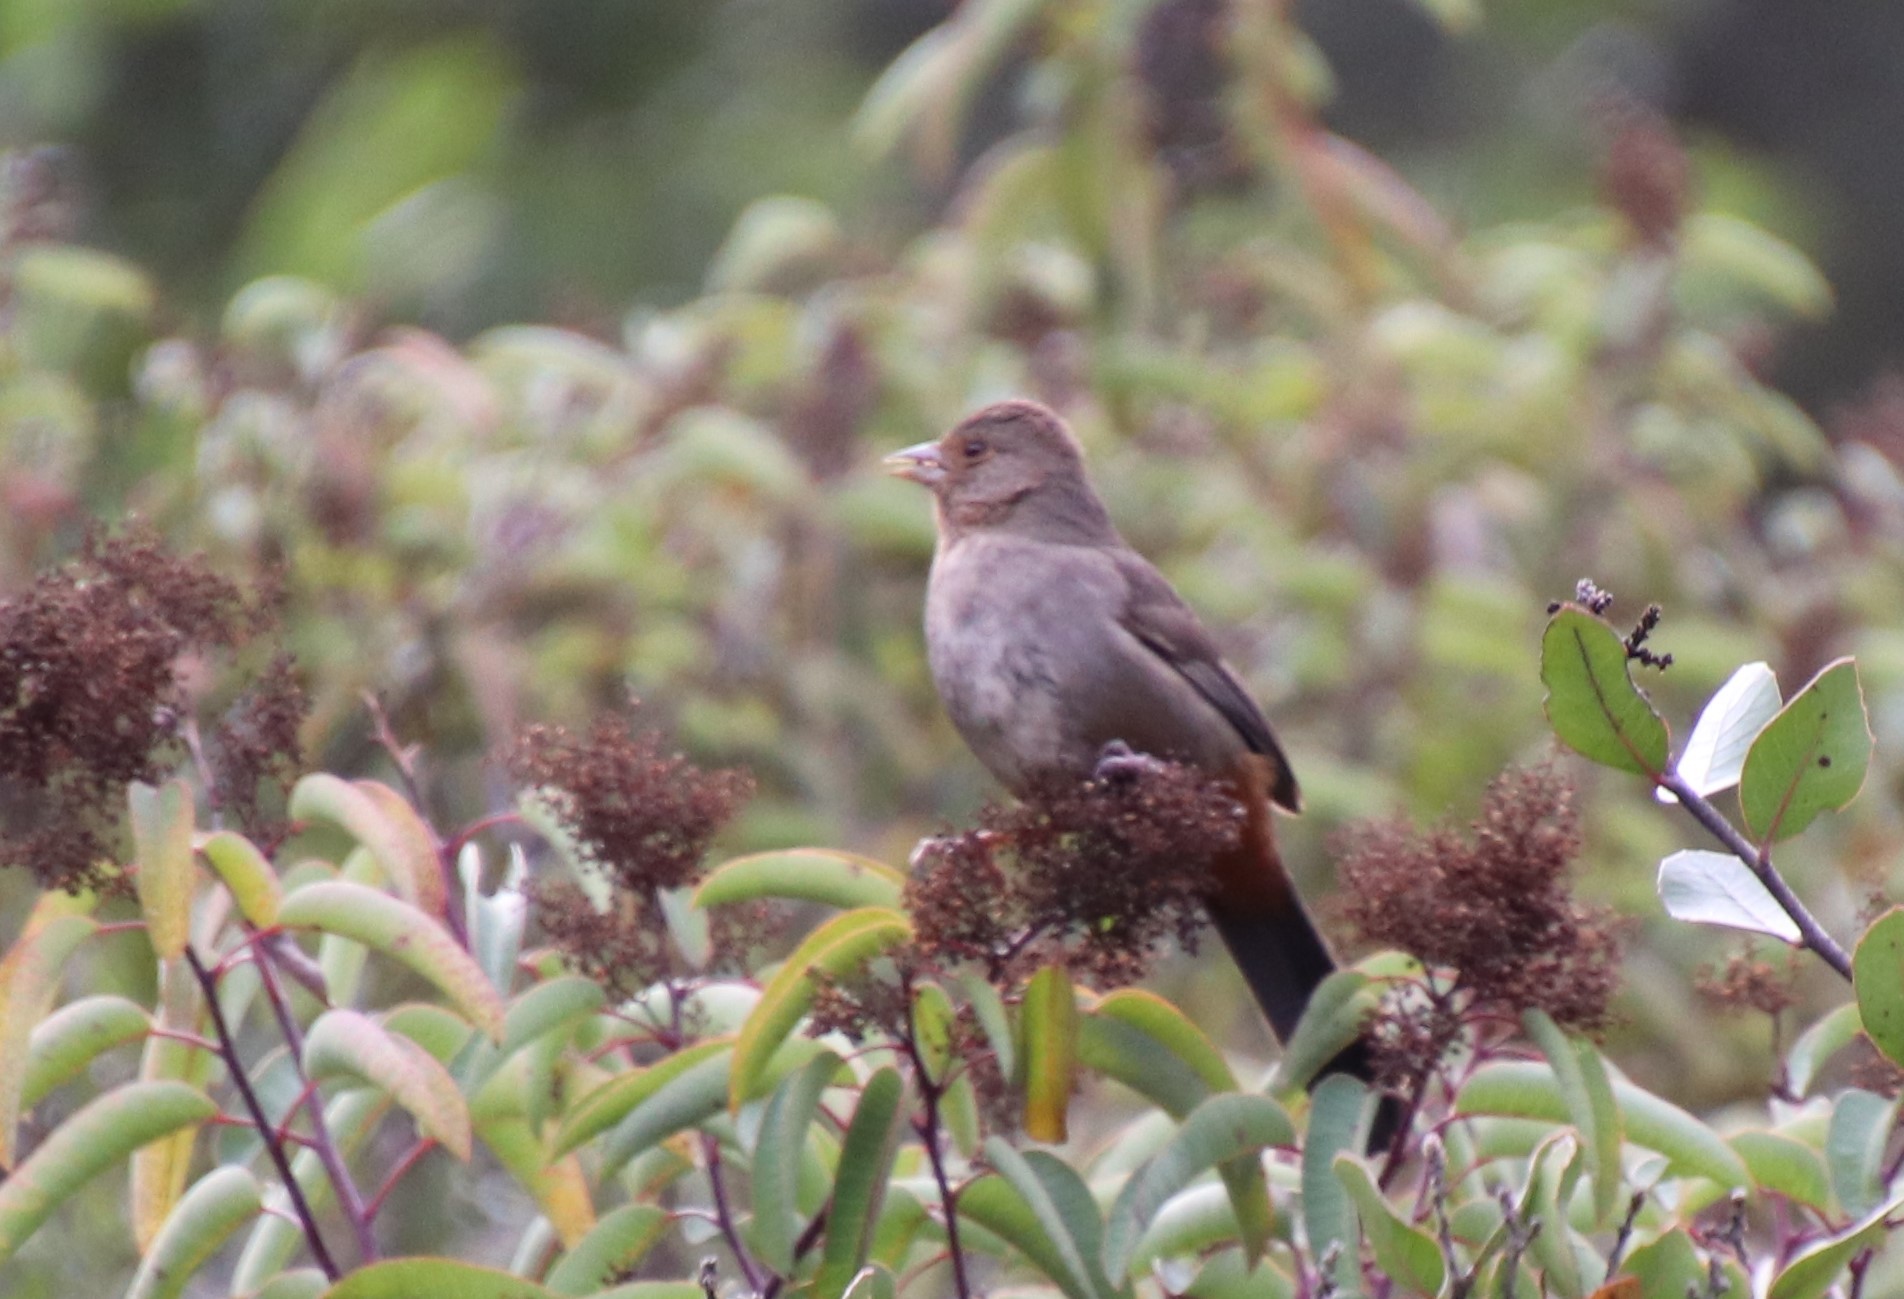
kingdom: Animalia
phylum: Chordata
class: Aves
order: Passeriformes
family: Passerellidae
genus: Melozone
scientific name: Melozone crissalis
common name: California towhee
